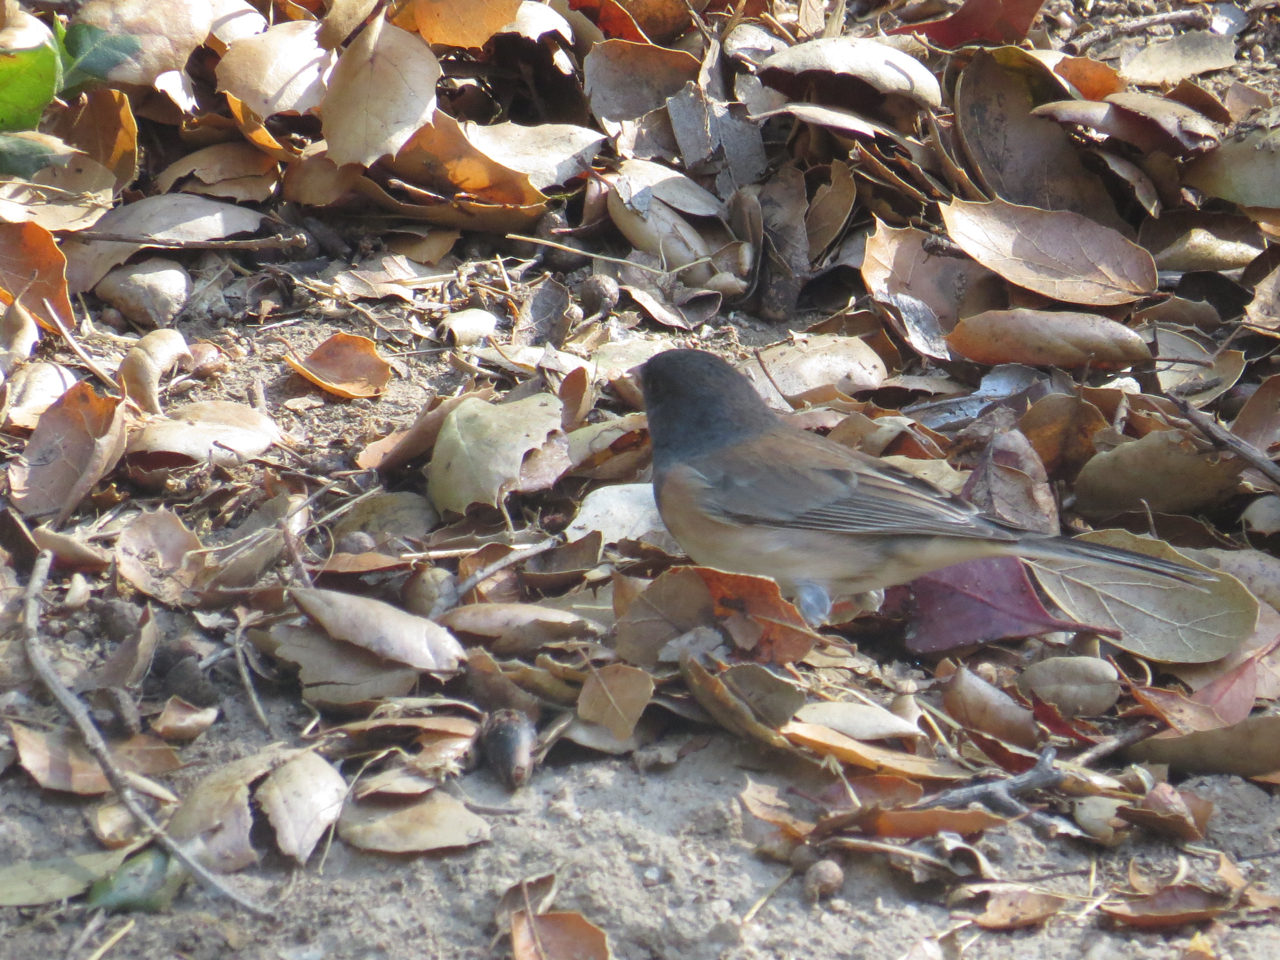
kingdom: Animalia
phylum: Chordata
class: Aves
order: Passeriformes
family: Passerellidae
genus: Junco
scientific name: Junco hyemalis
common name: Dark-eyed junco
